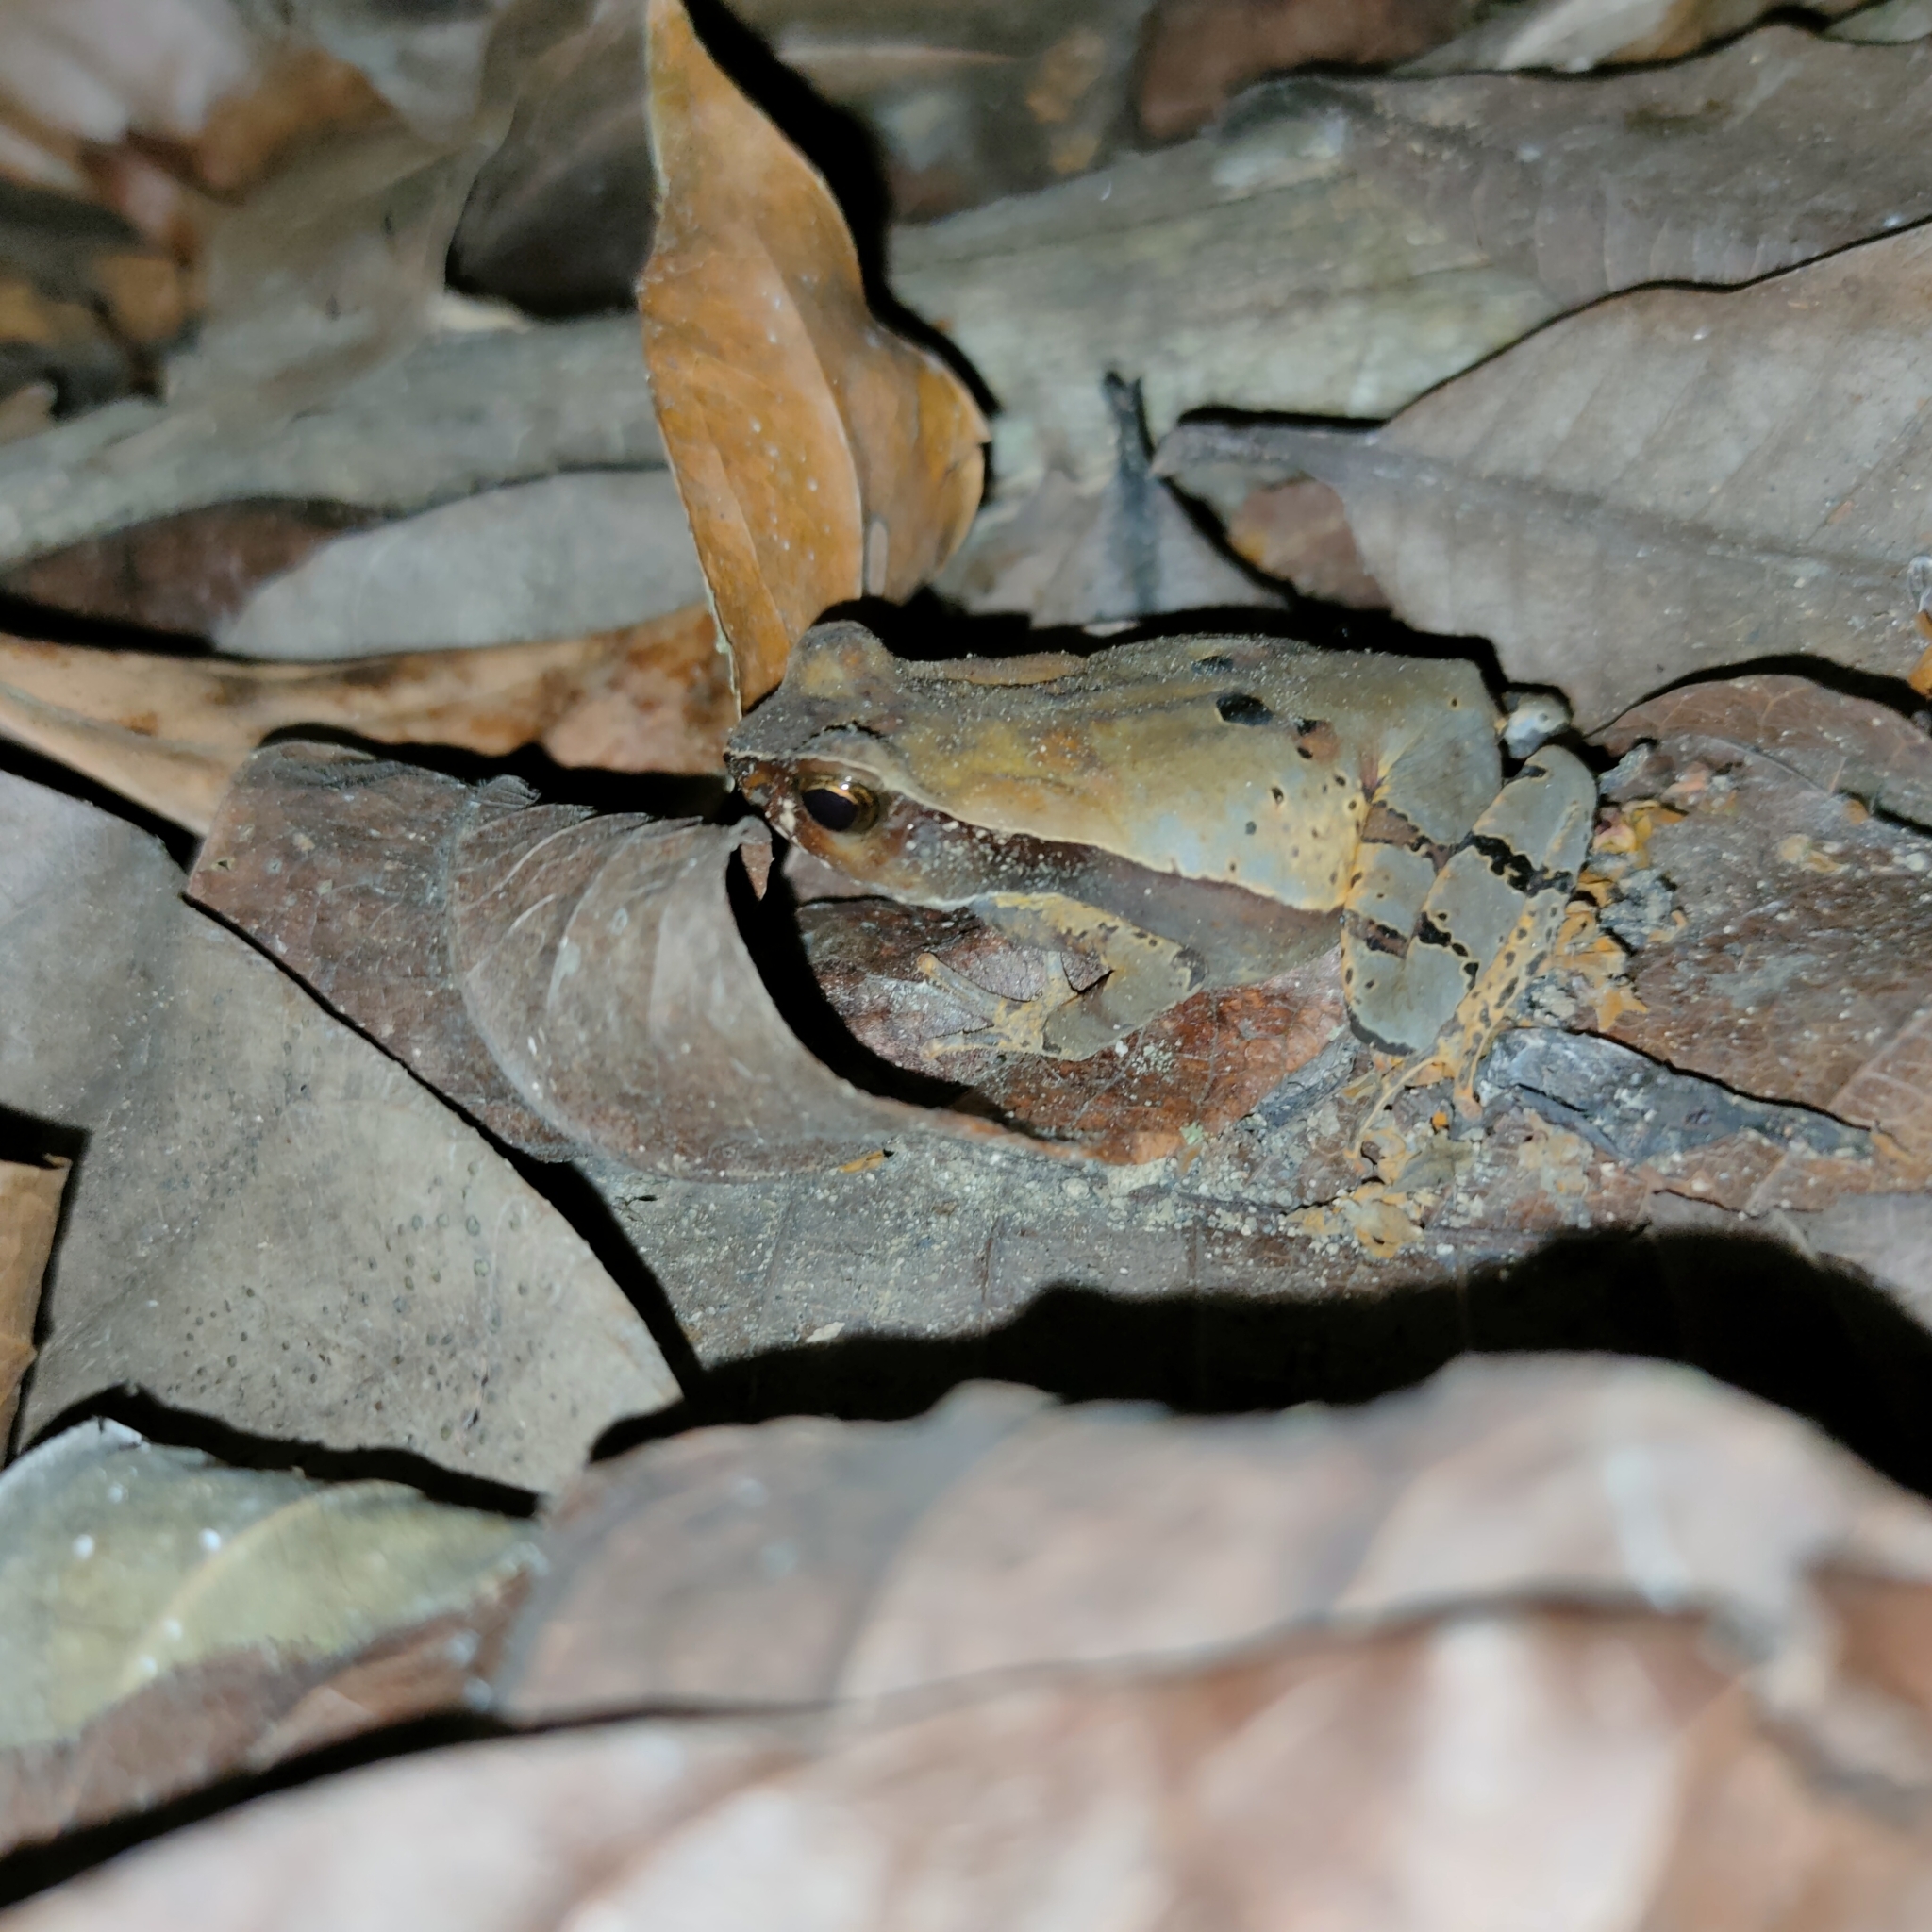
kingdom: Animalia
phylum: Chordata
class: Amphibia
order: Anura
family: Bufonidae
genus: Rhaebo
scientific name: Rhaebo haematiticus
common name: Truando toad
